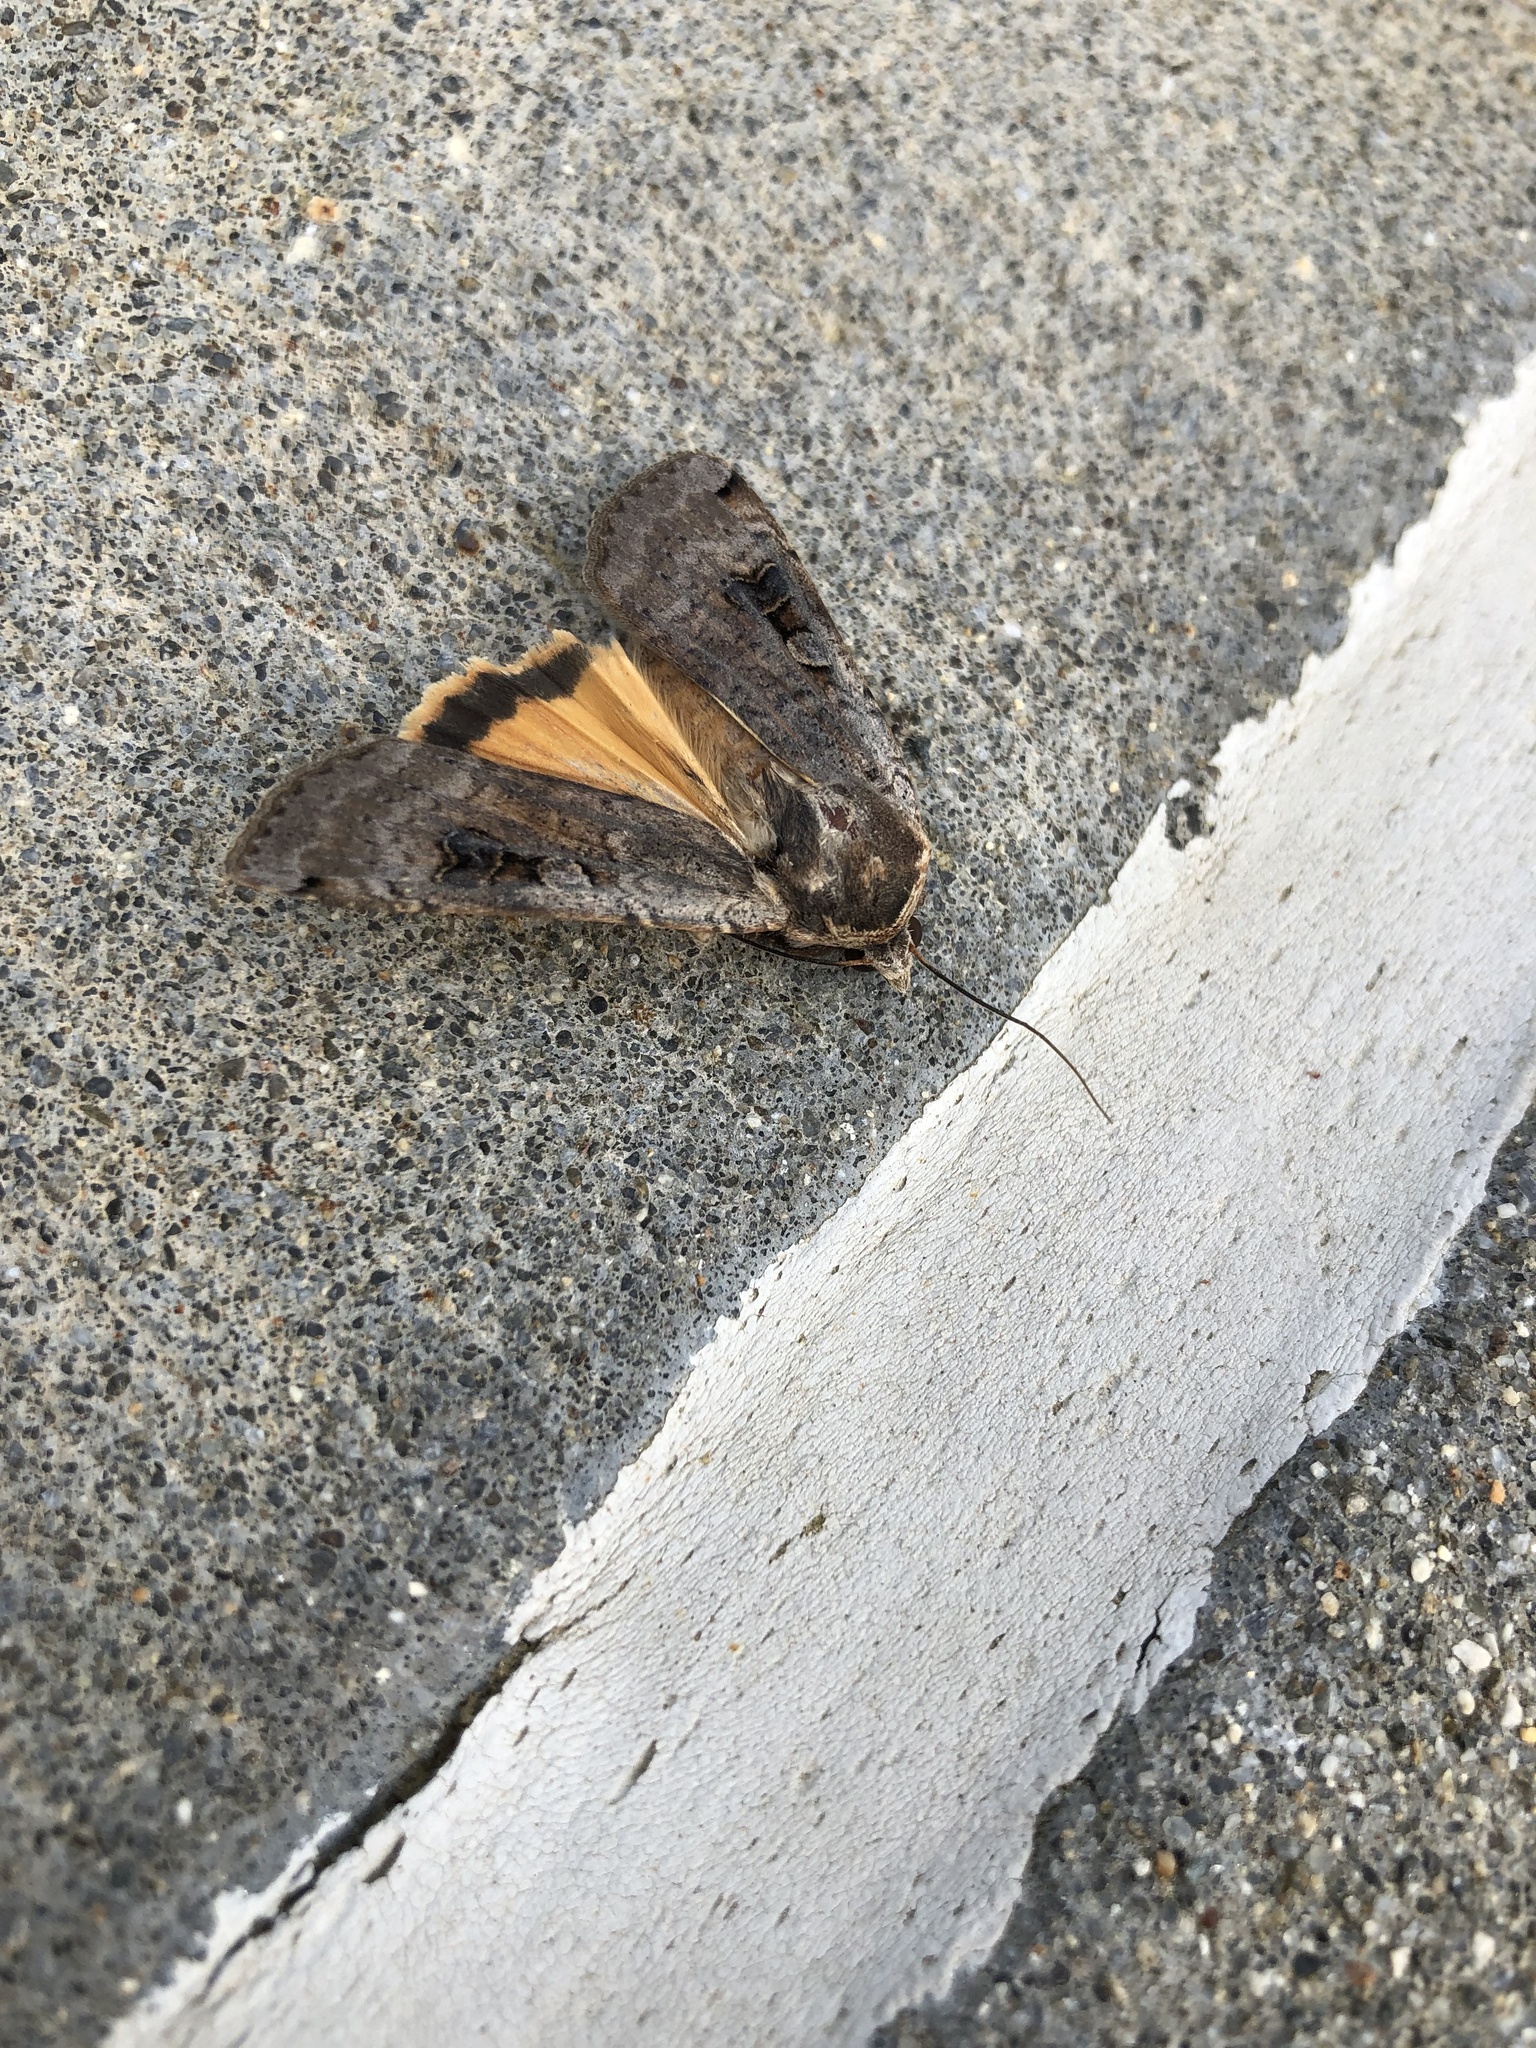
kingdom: Animalia
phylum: Arthropoda
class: Insecta
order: Lepidoptera
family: Noctuidae
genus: Noctua
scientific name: Noctua pronuba
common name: Large yellow underwing
